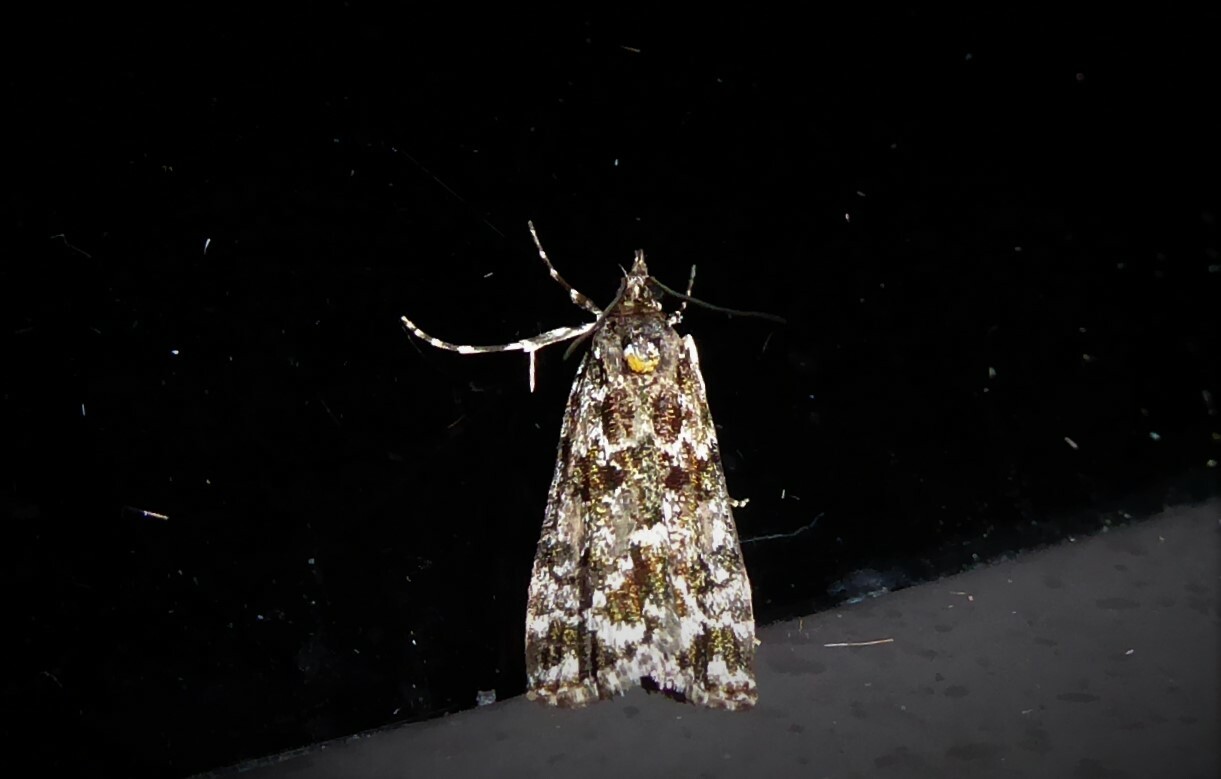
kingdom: Animalia
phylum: Arthropoda
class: Insecta
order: Lepidoptera
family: Crambidae
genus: Eudonia
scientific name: Eudonia
